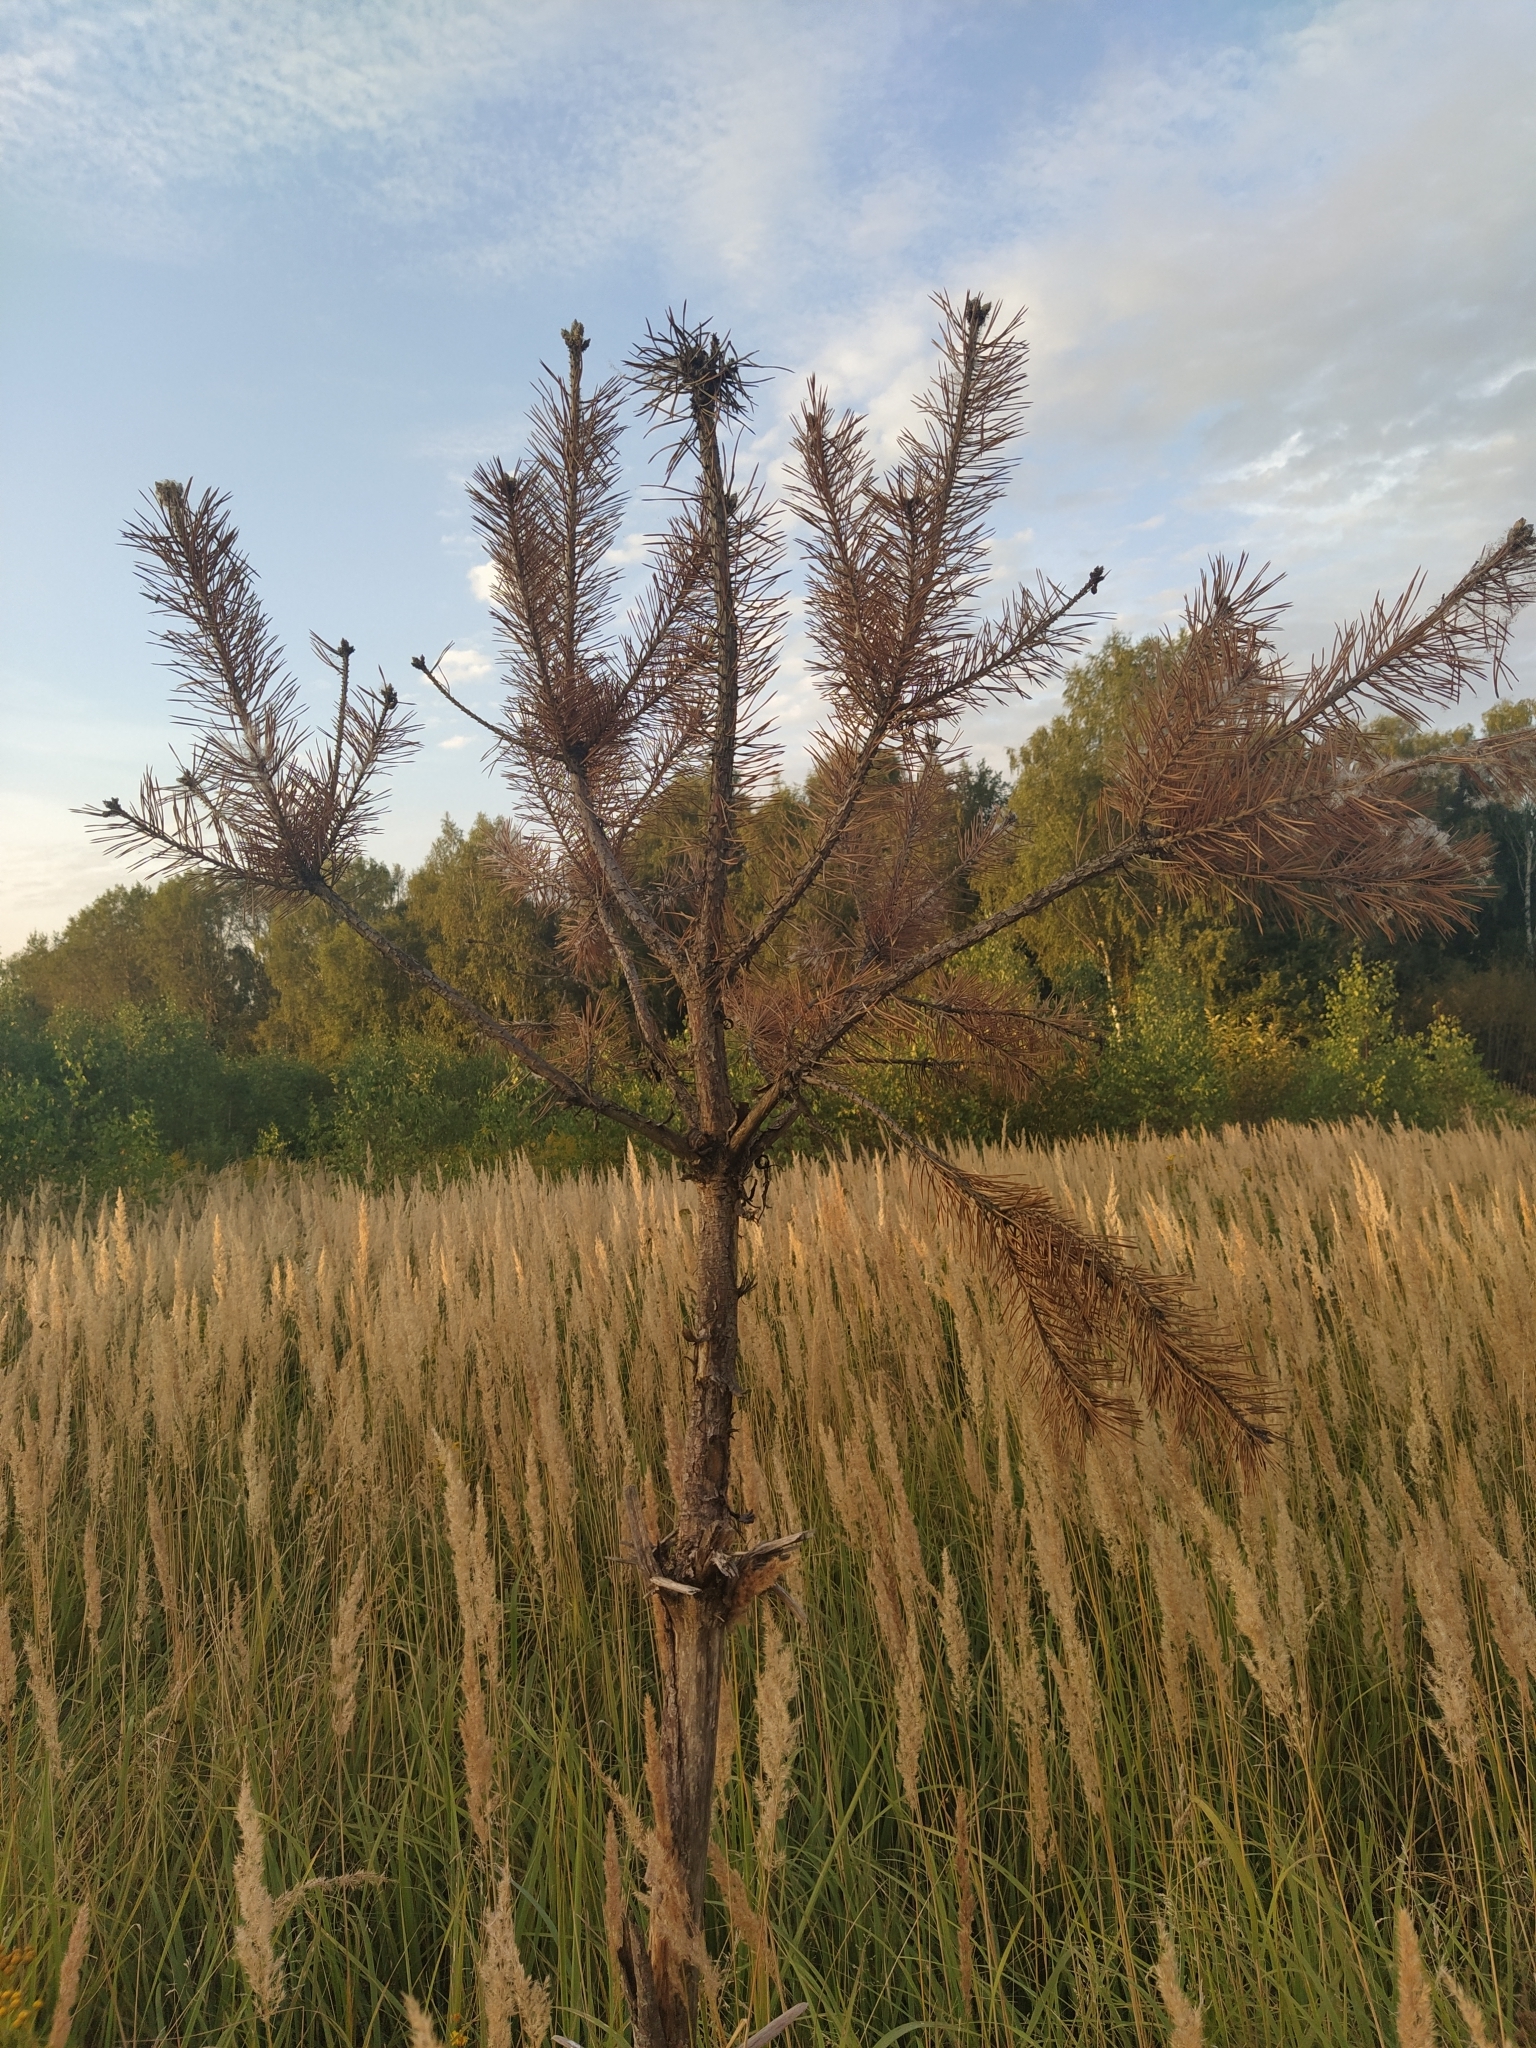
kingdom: Plantae
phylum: Tracheophyta
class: Pinopsida
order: Pinales
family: Pinaceae
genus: Pinus
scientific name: Pinus sylvestris
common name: Scots pine
